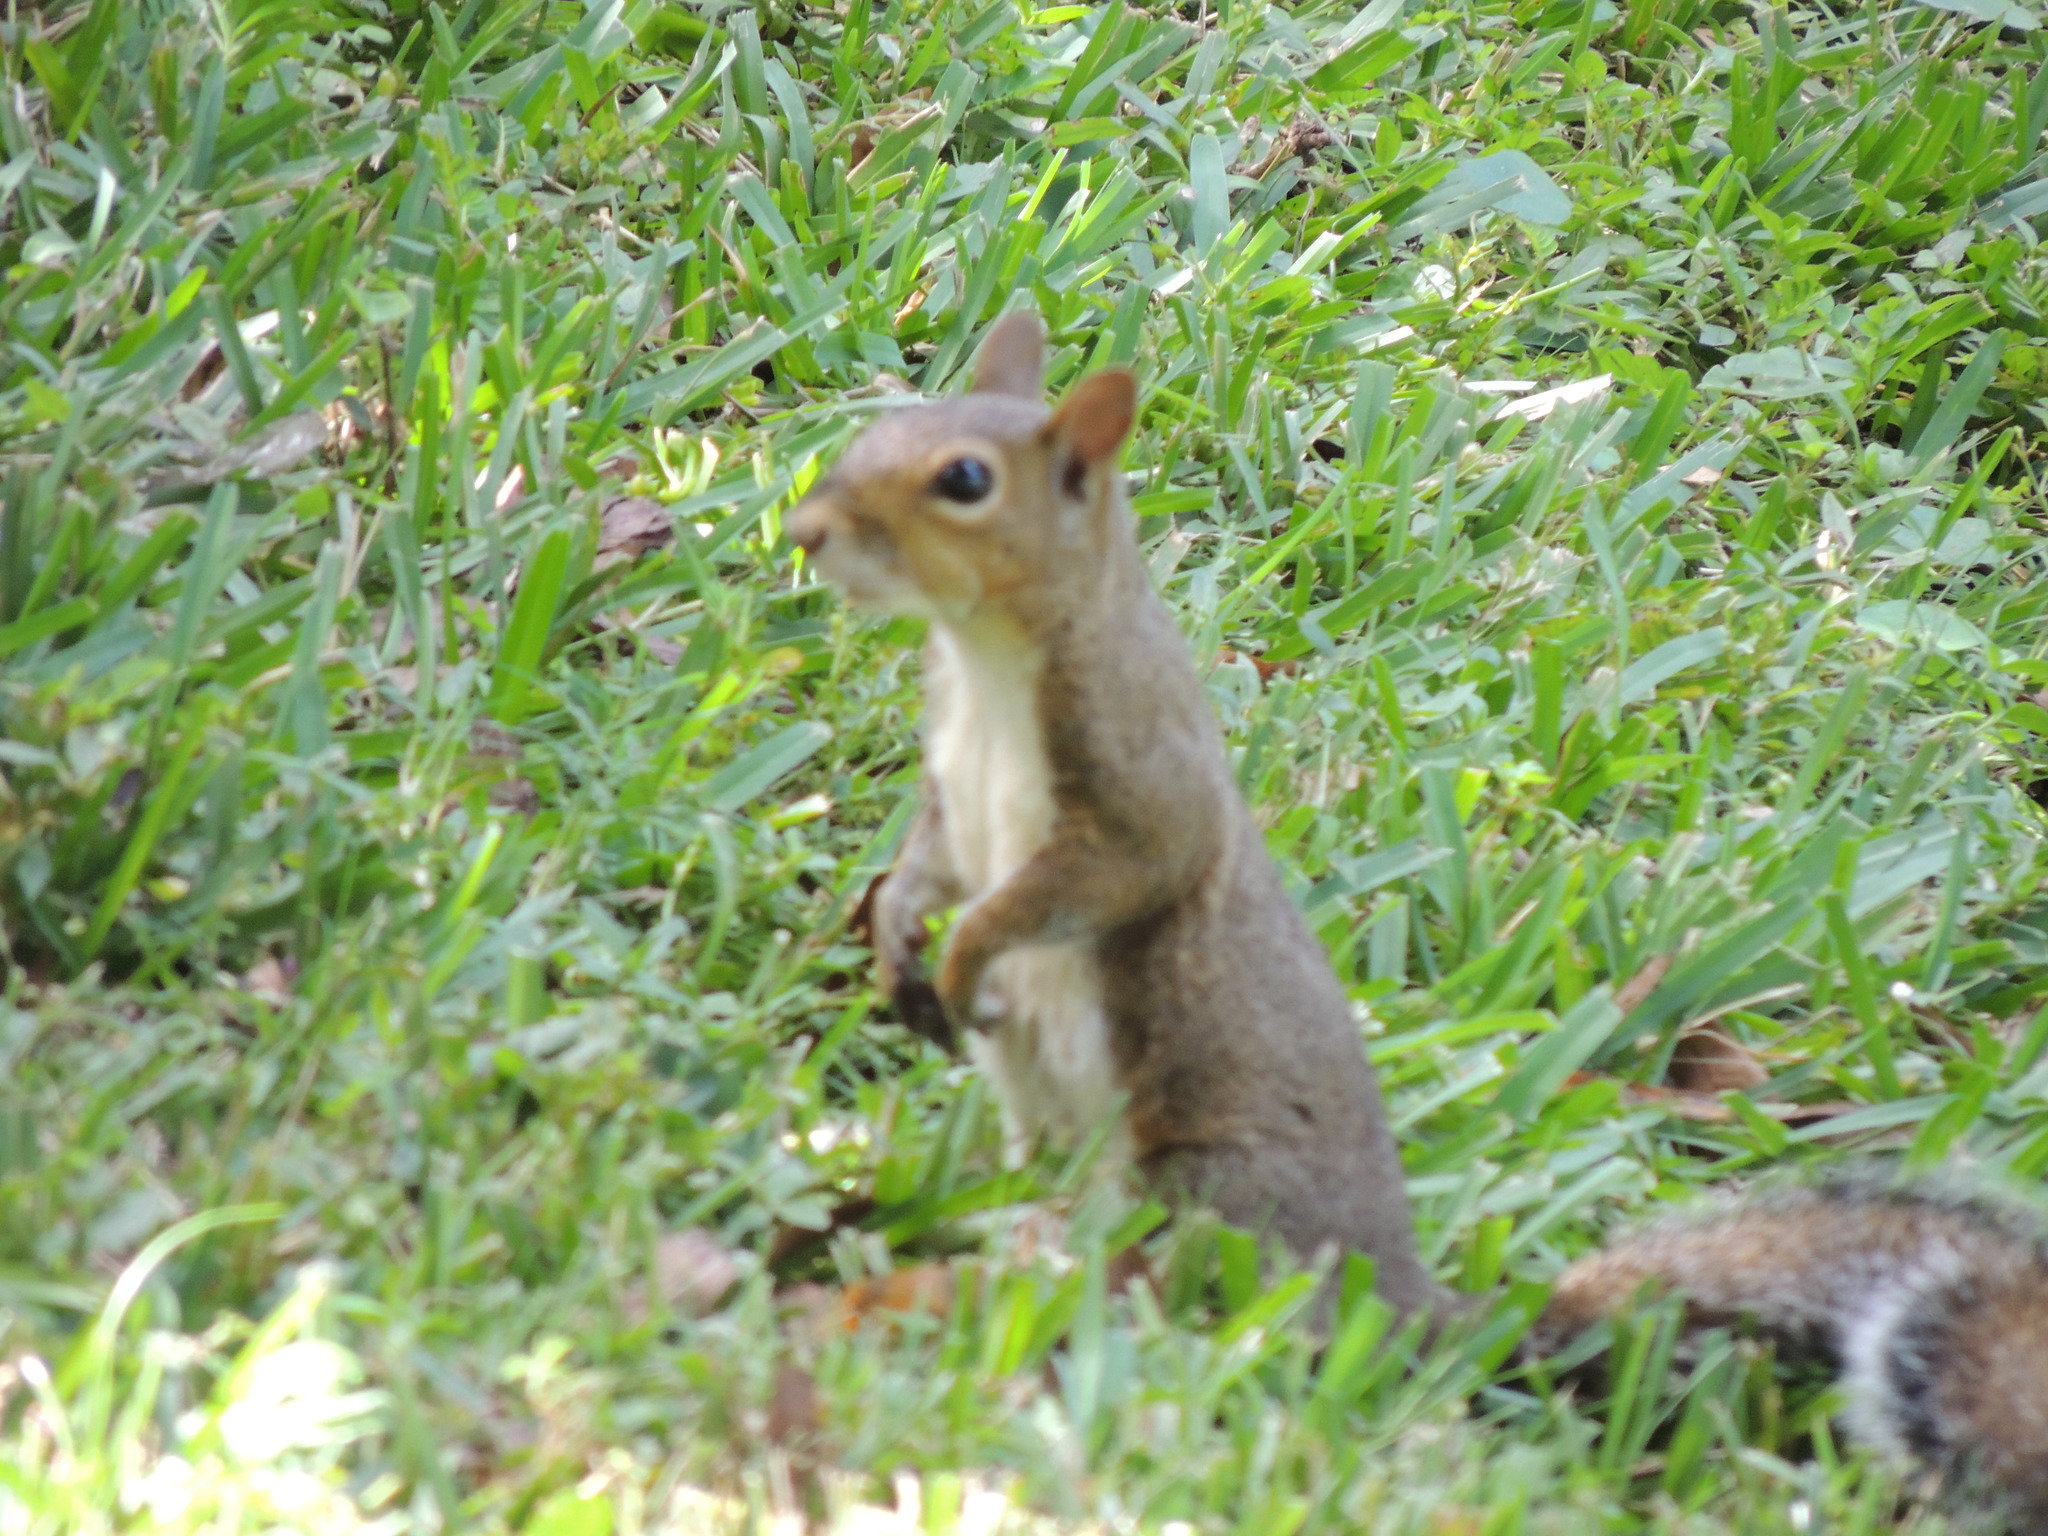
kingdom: Animalia
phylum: Chordata
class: Mammalia
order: Rodentia
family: Sciuridae
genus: Sciurus
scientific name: Sciurus carolinensis
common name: Eastern gray squirrel
